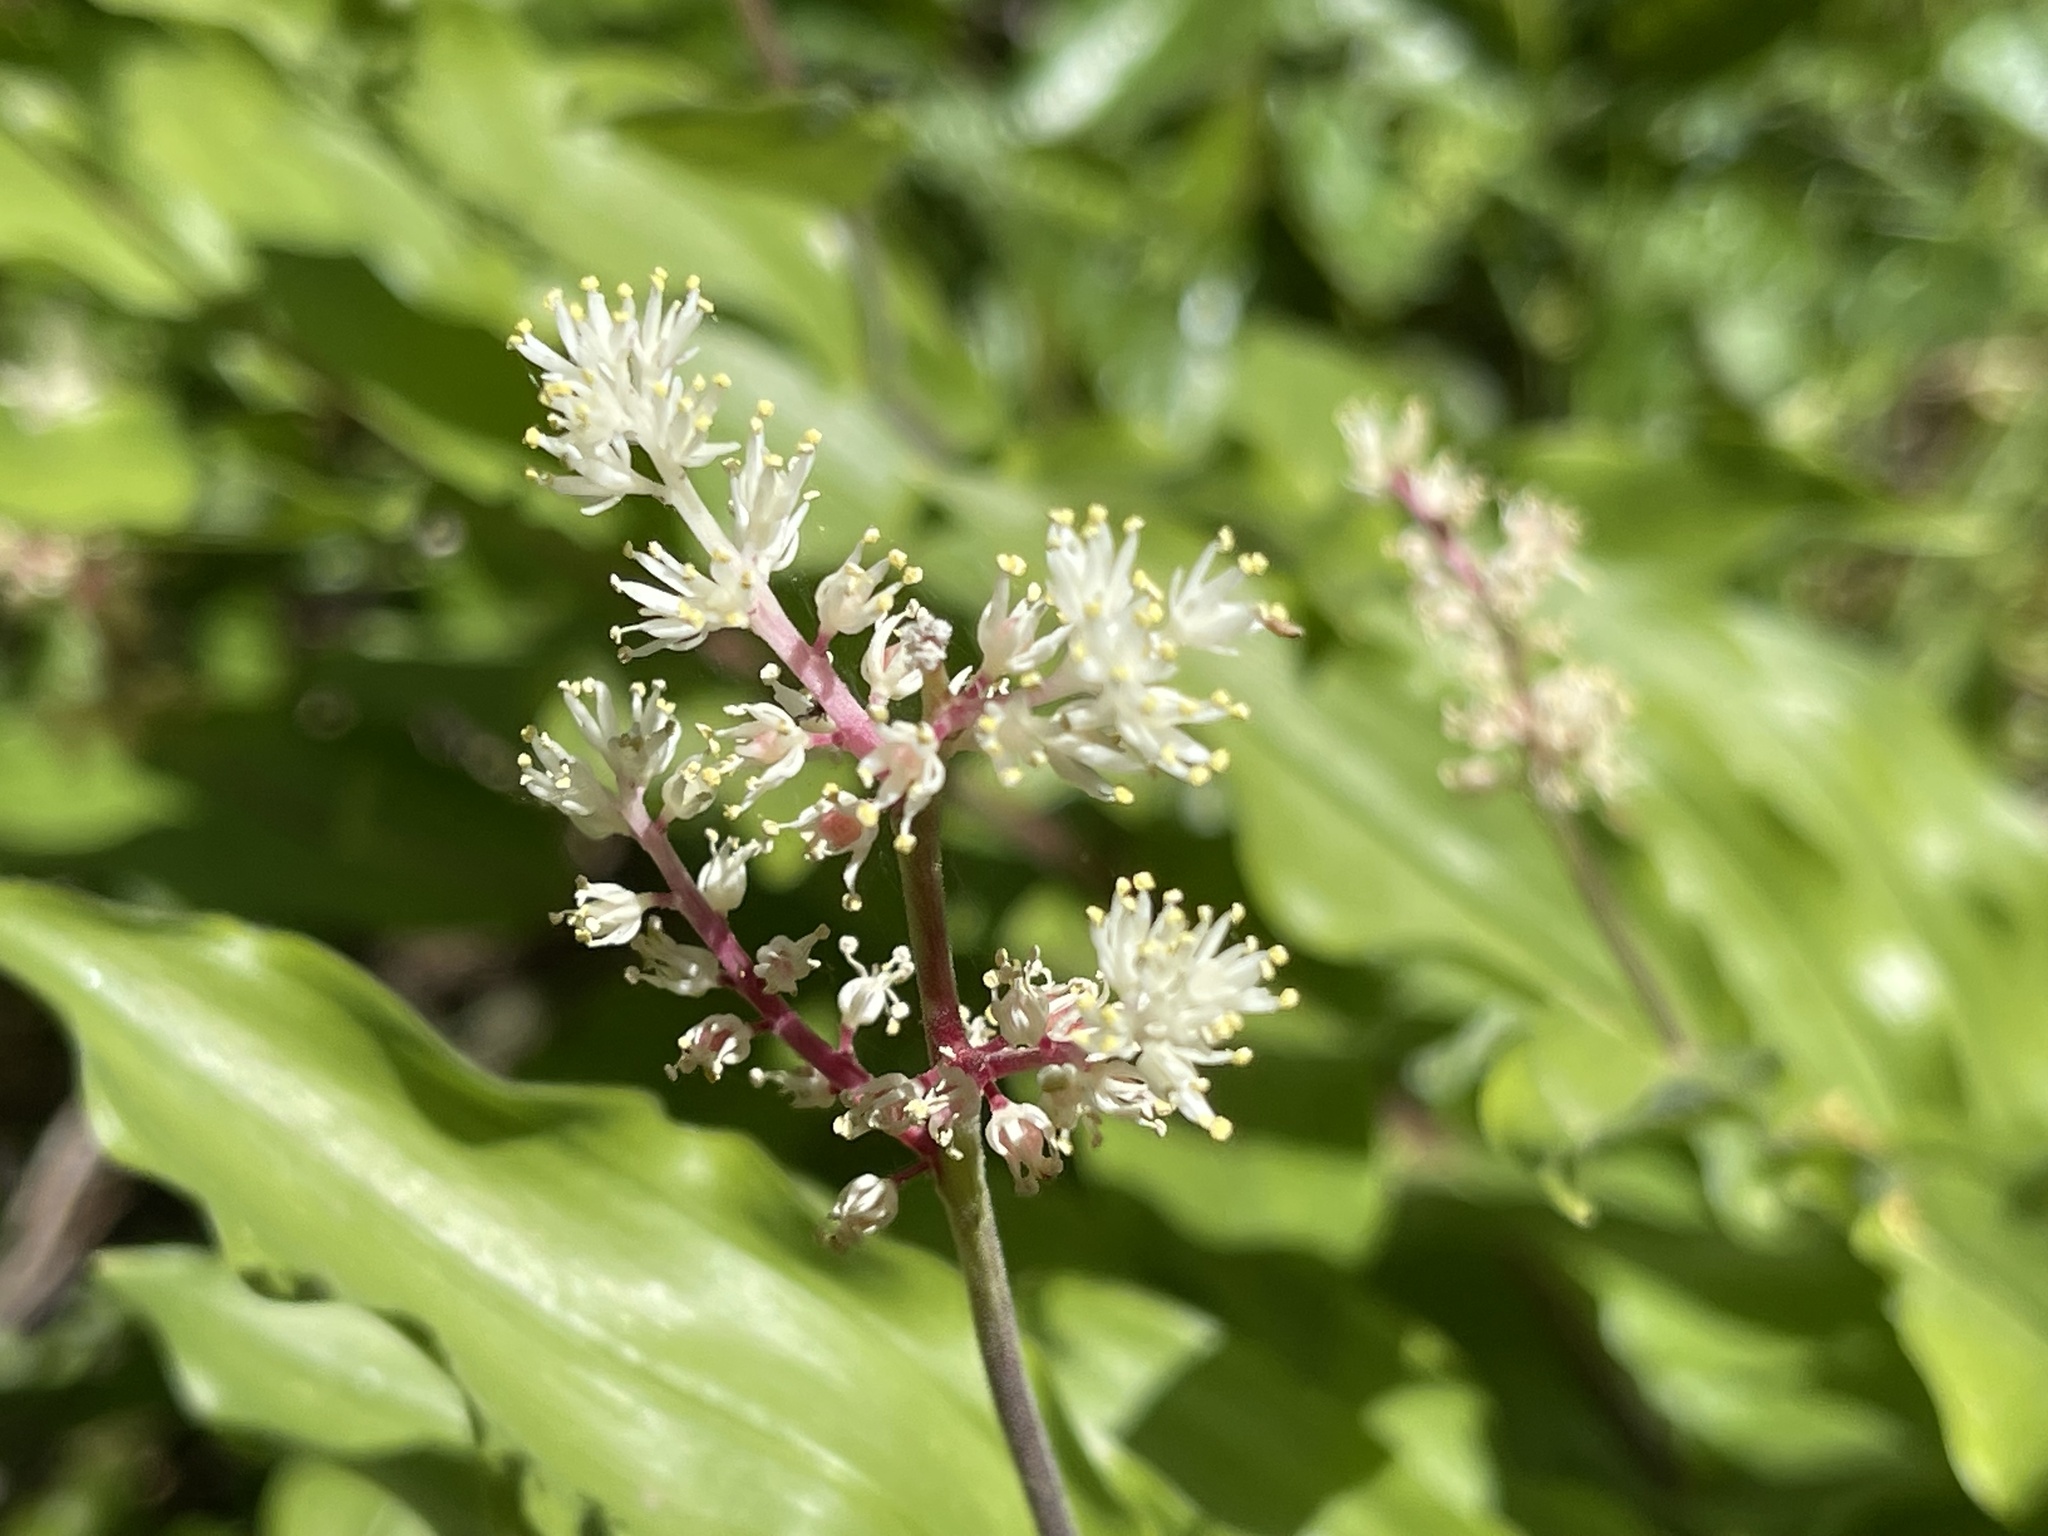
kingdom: Plantae
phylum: Tracheophyta
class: Liliopsida
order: Asparagales
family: Asparagaceae
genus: Maianthemum
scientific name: Maianthemum racemosum
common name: False spikenard
